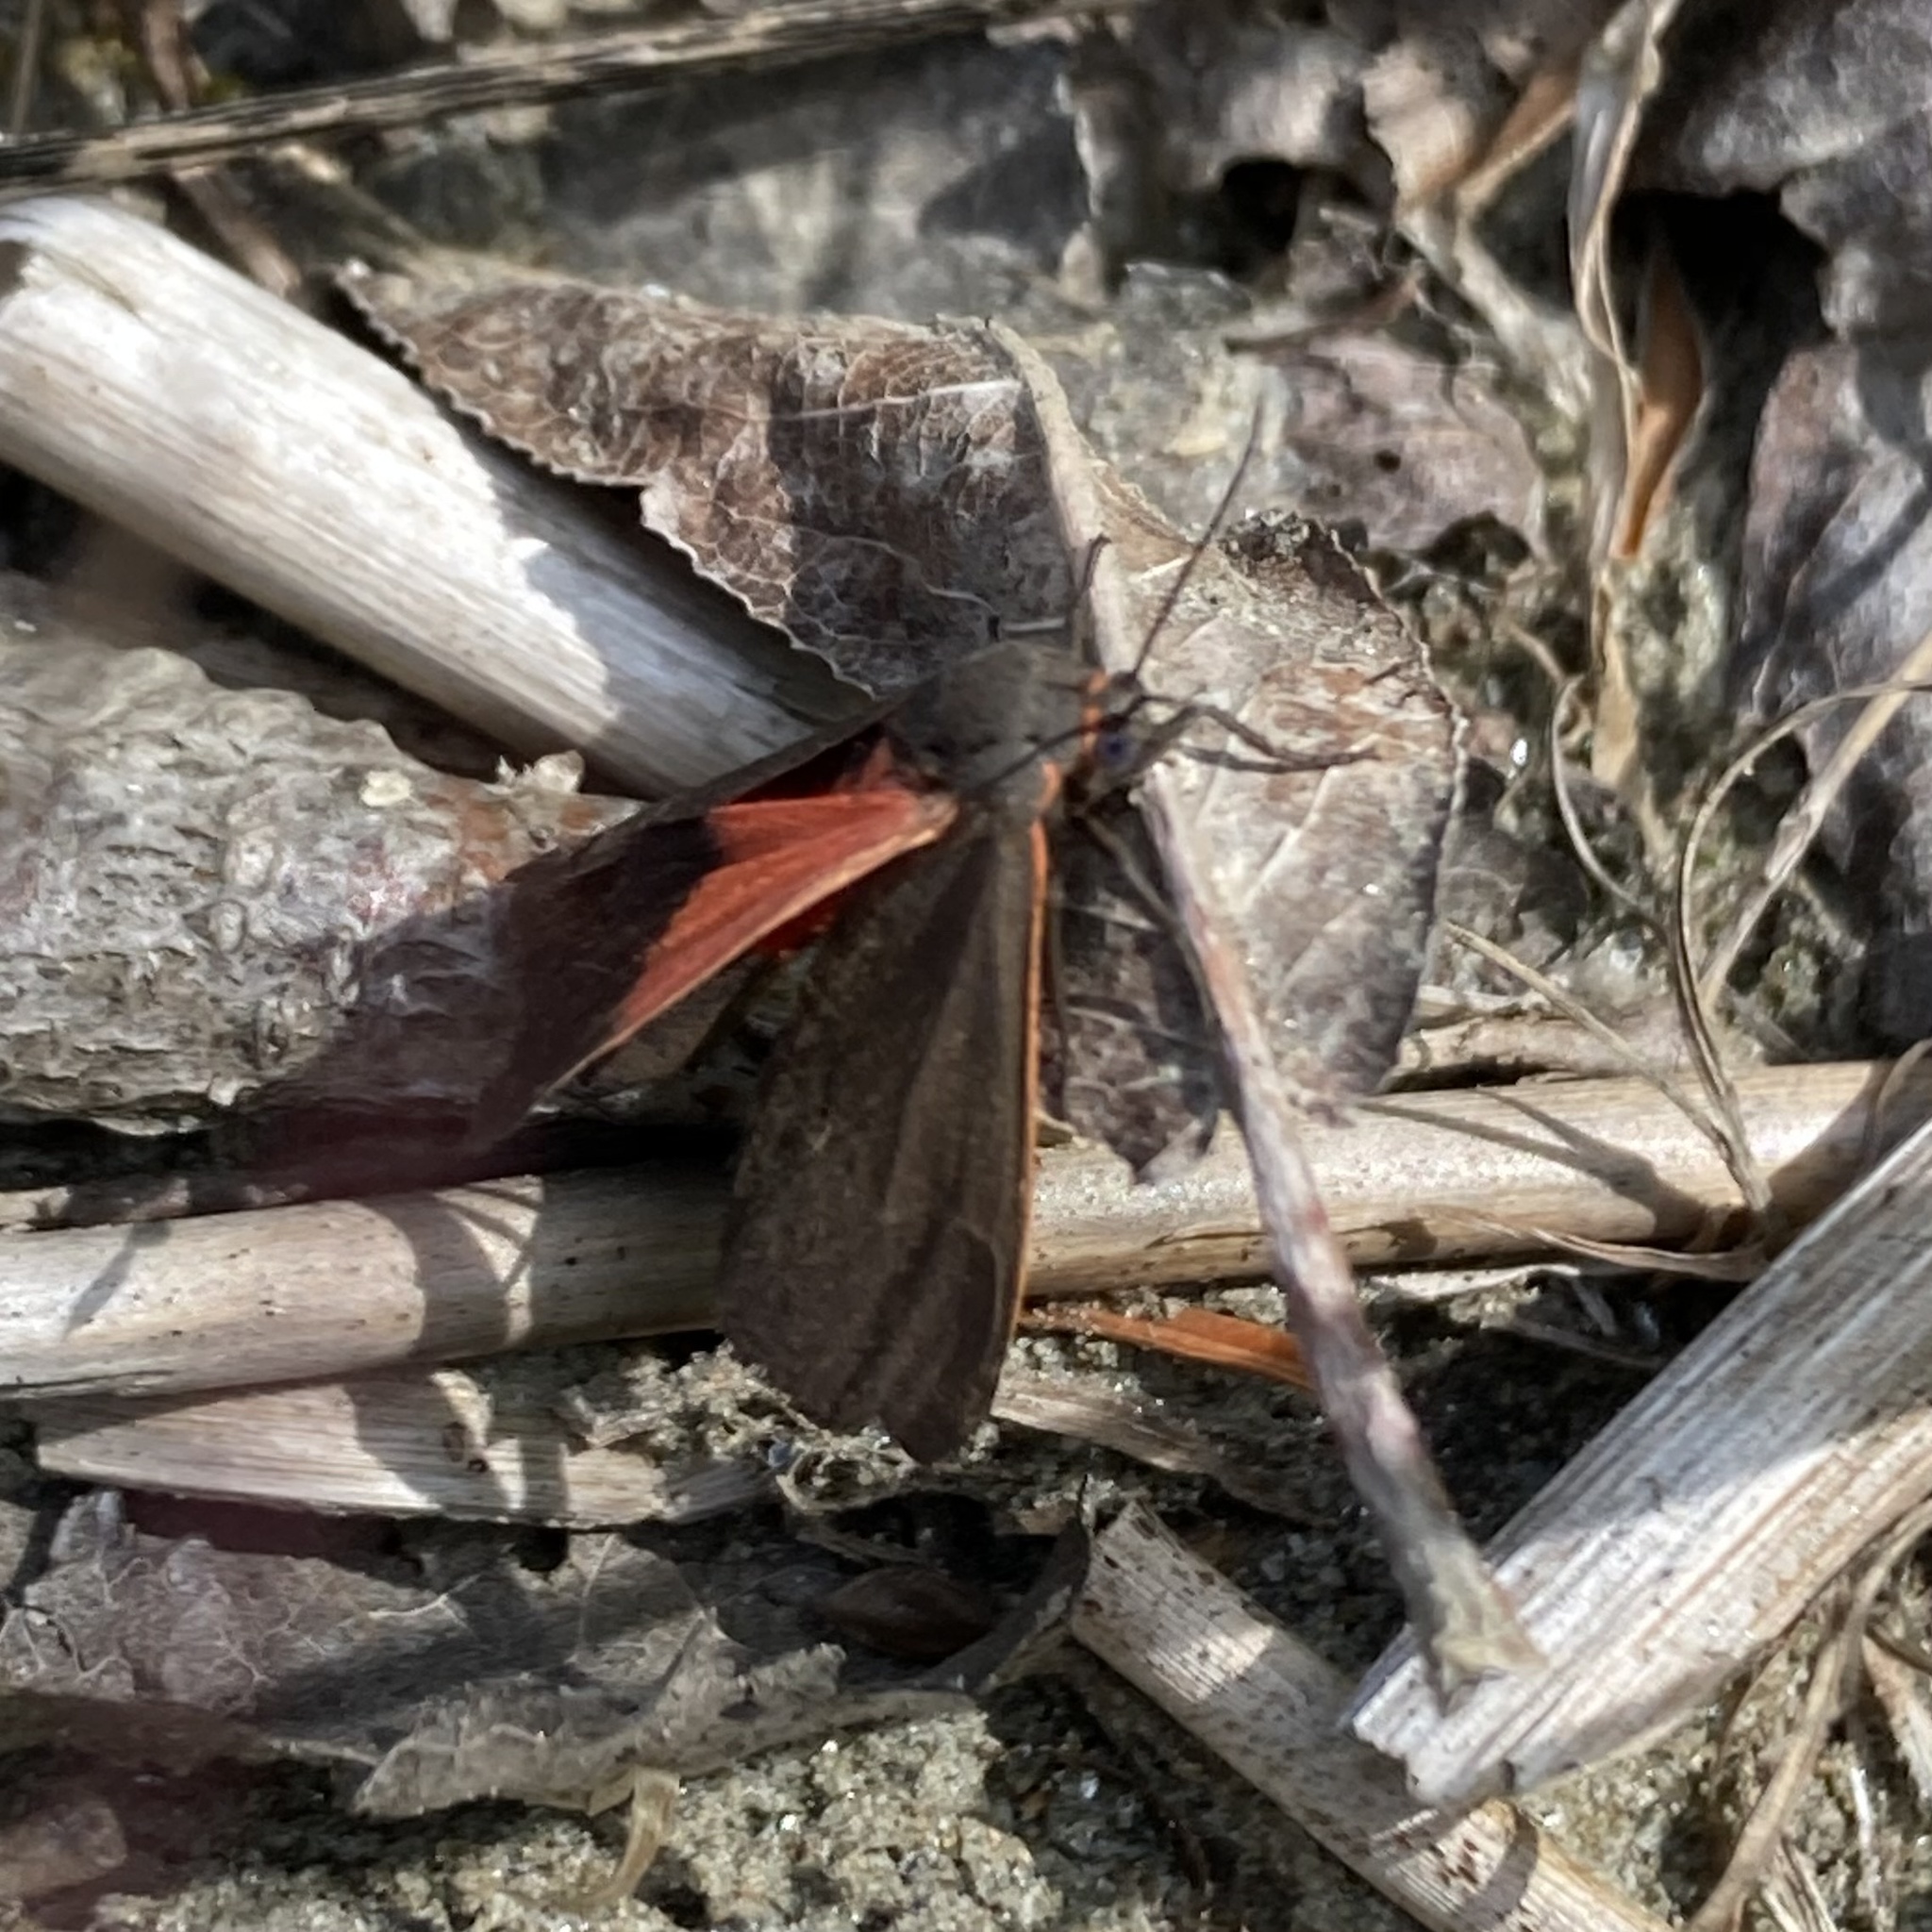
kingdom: Animalia
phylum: Arthropoda
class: Insecta
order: Lepidoptera
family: Erebidae
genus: Virbia
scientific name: Virbia laeta
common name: Joyful holomelina moth
